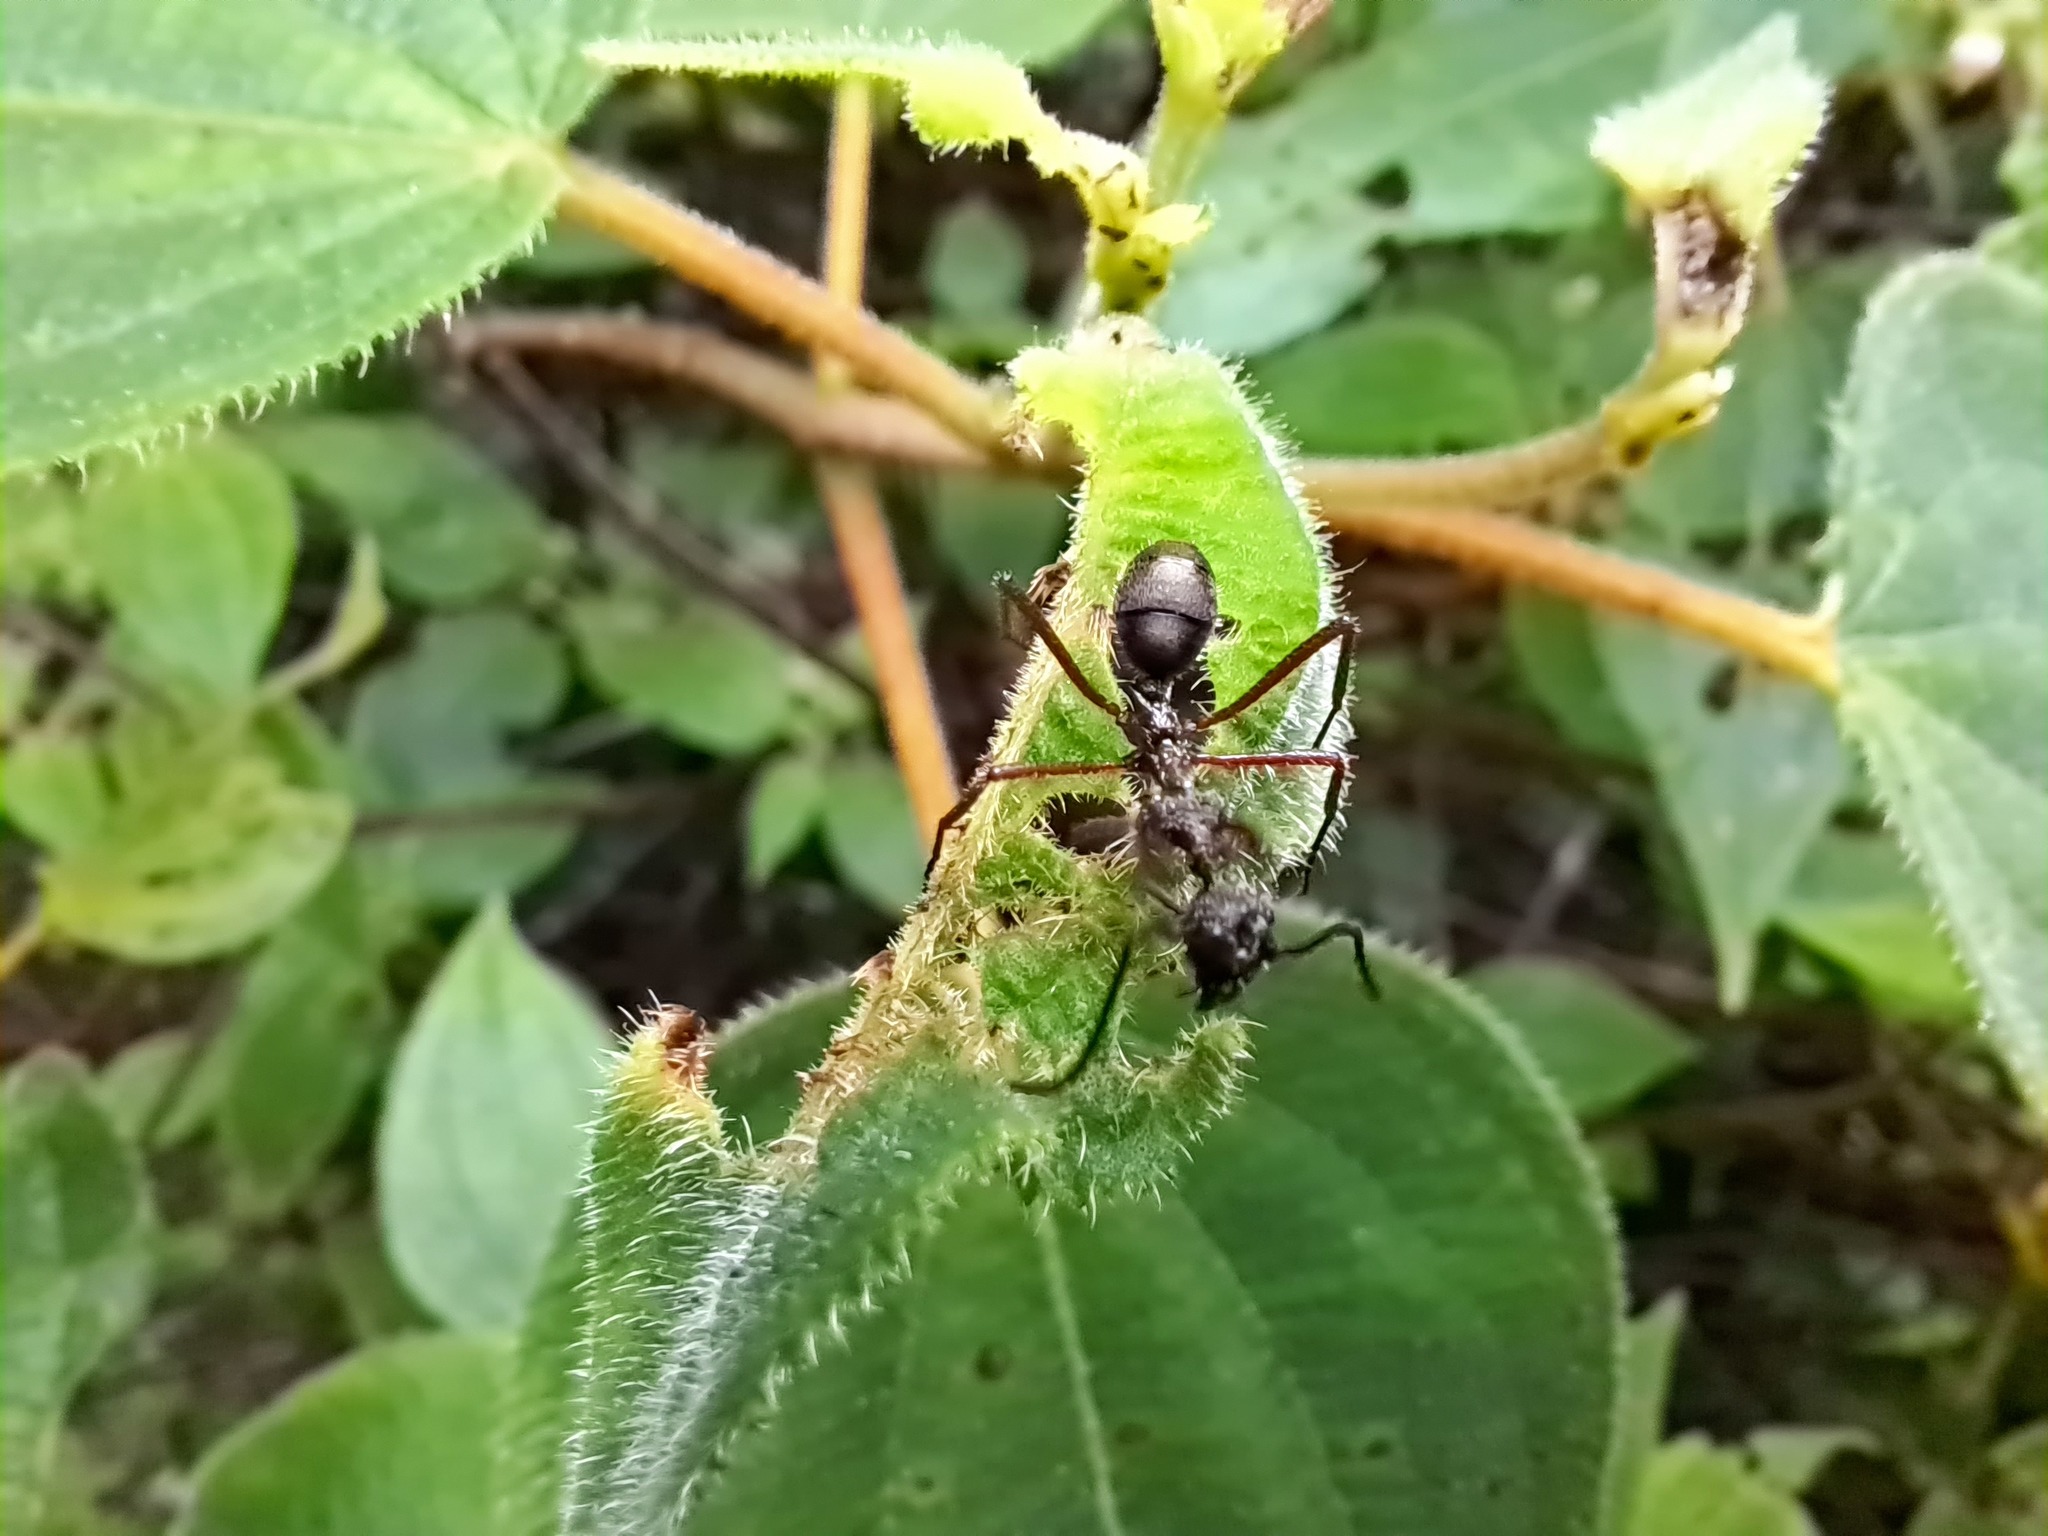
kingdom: Animalia
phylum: Arthropoda
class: Insecta
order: Hymenoptera
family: Formicidae
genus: Dolichoderus
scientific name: Dolichoderus attelaboides
